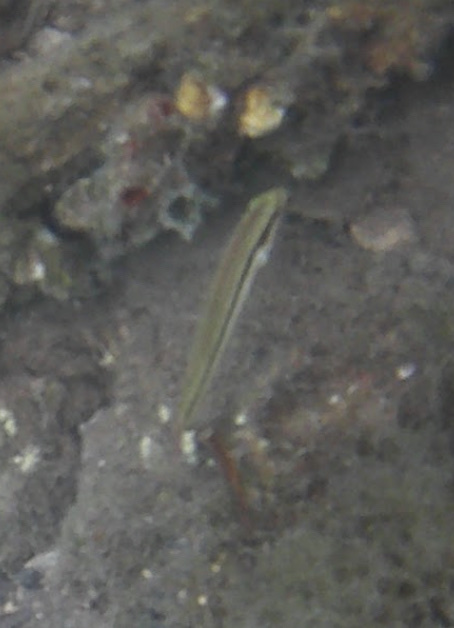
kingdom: Animalia
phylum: Chordata
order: Perciformes
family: Labridae
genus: Halichoeres
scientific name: Halichoeres bivittatus
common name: Slippery dick
